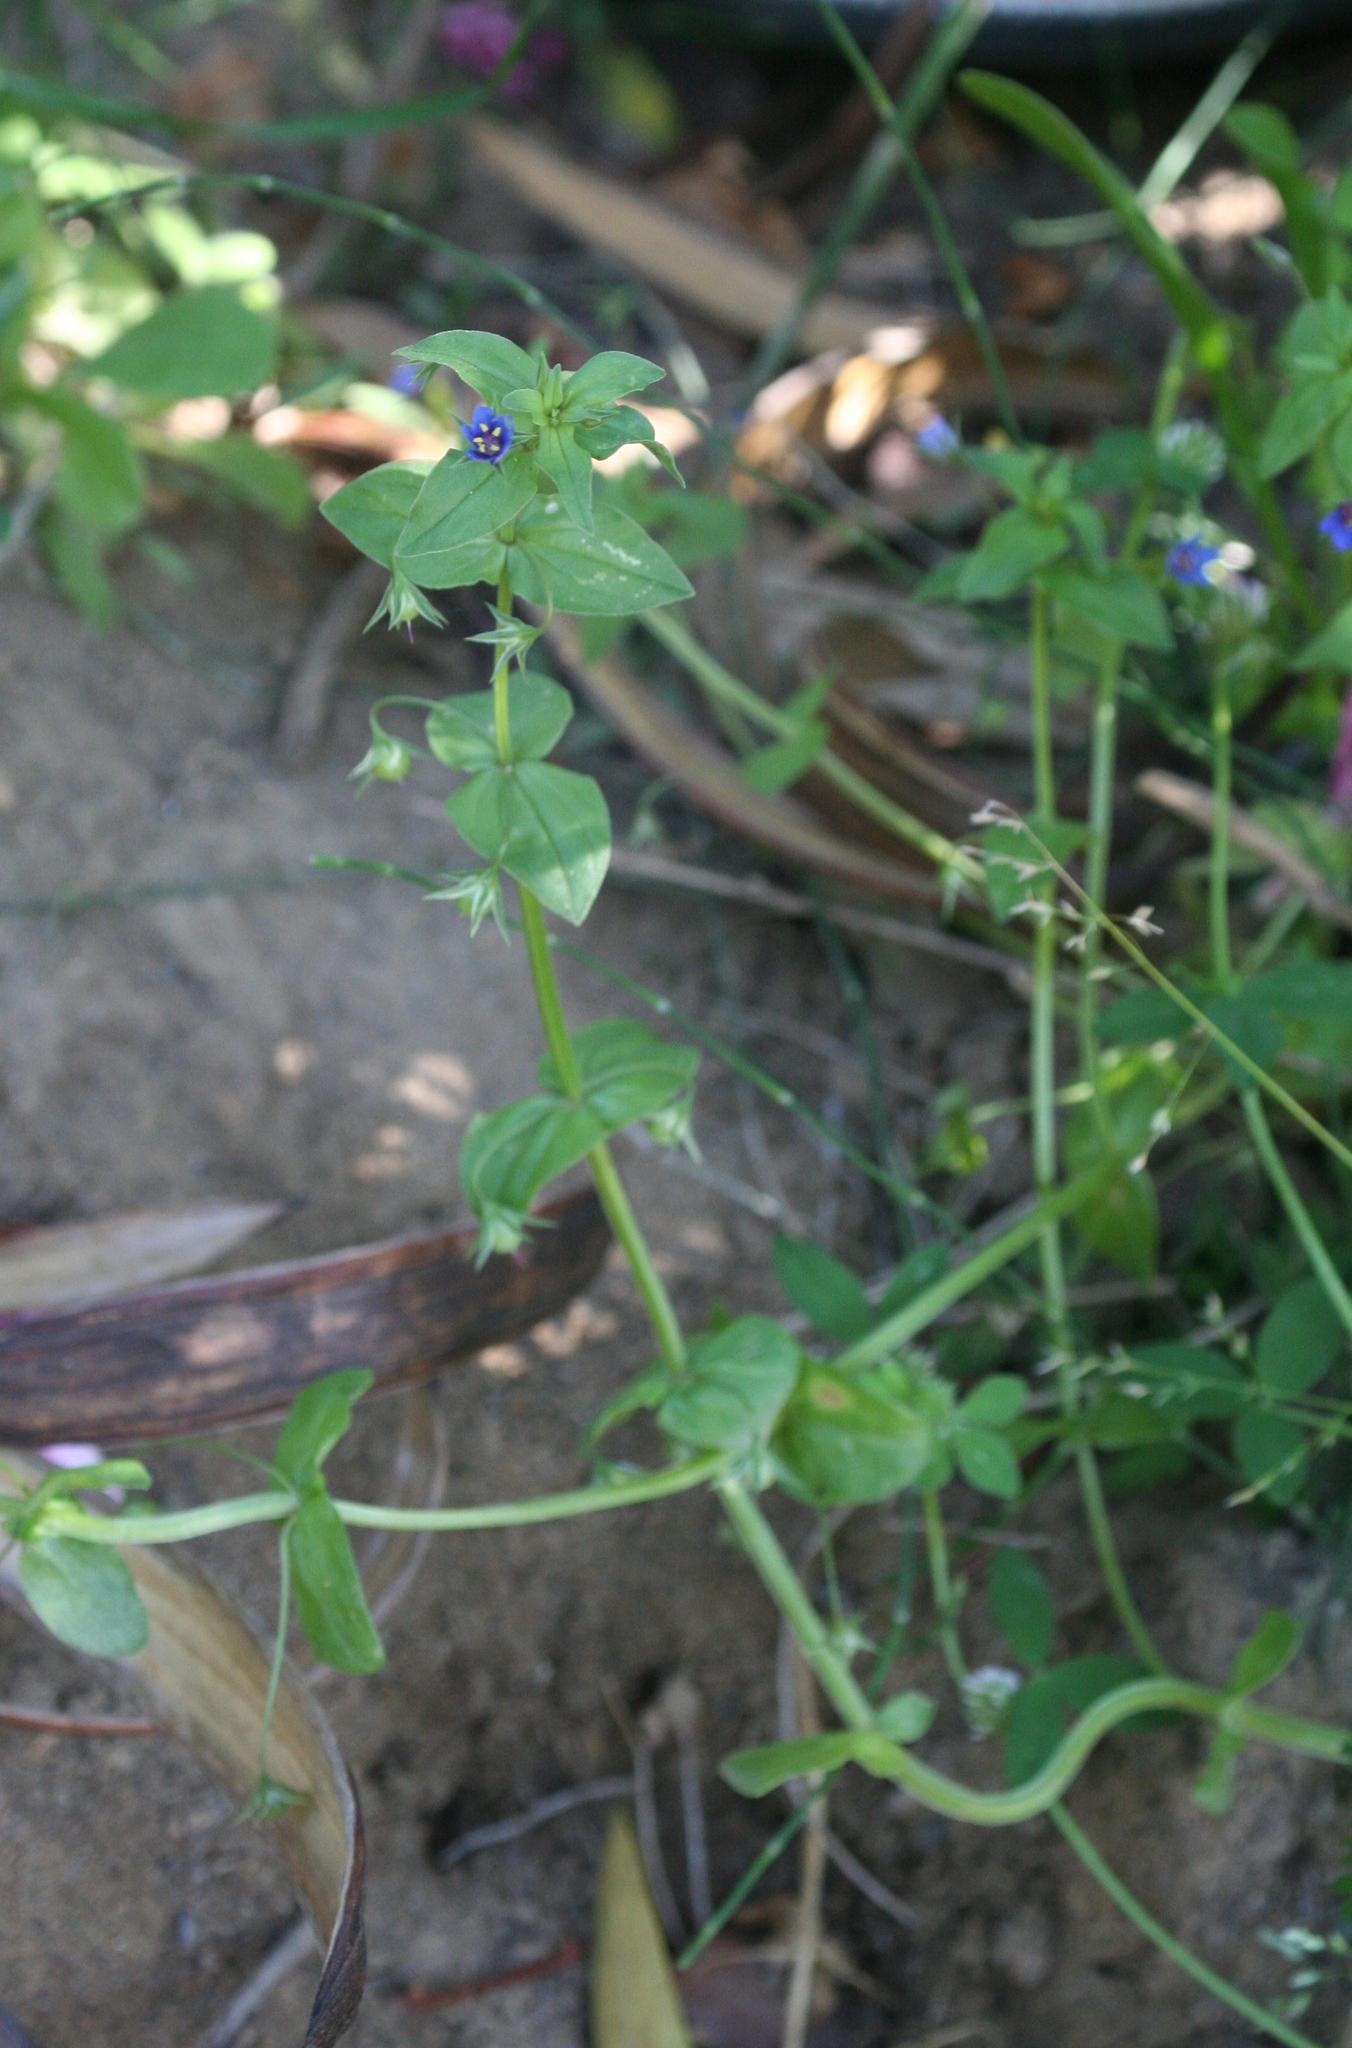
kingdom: Plantae
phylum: Tracheophyta
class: Magnoliopsida
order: Ericales
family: Primulaceae
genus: Lysimachia
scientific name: Lysimachia talaverae
